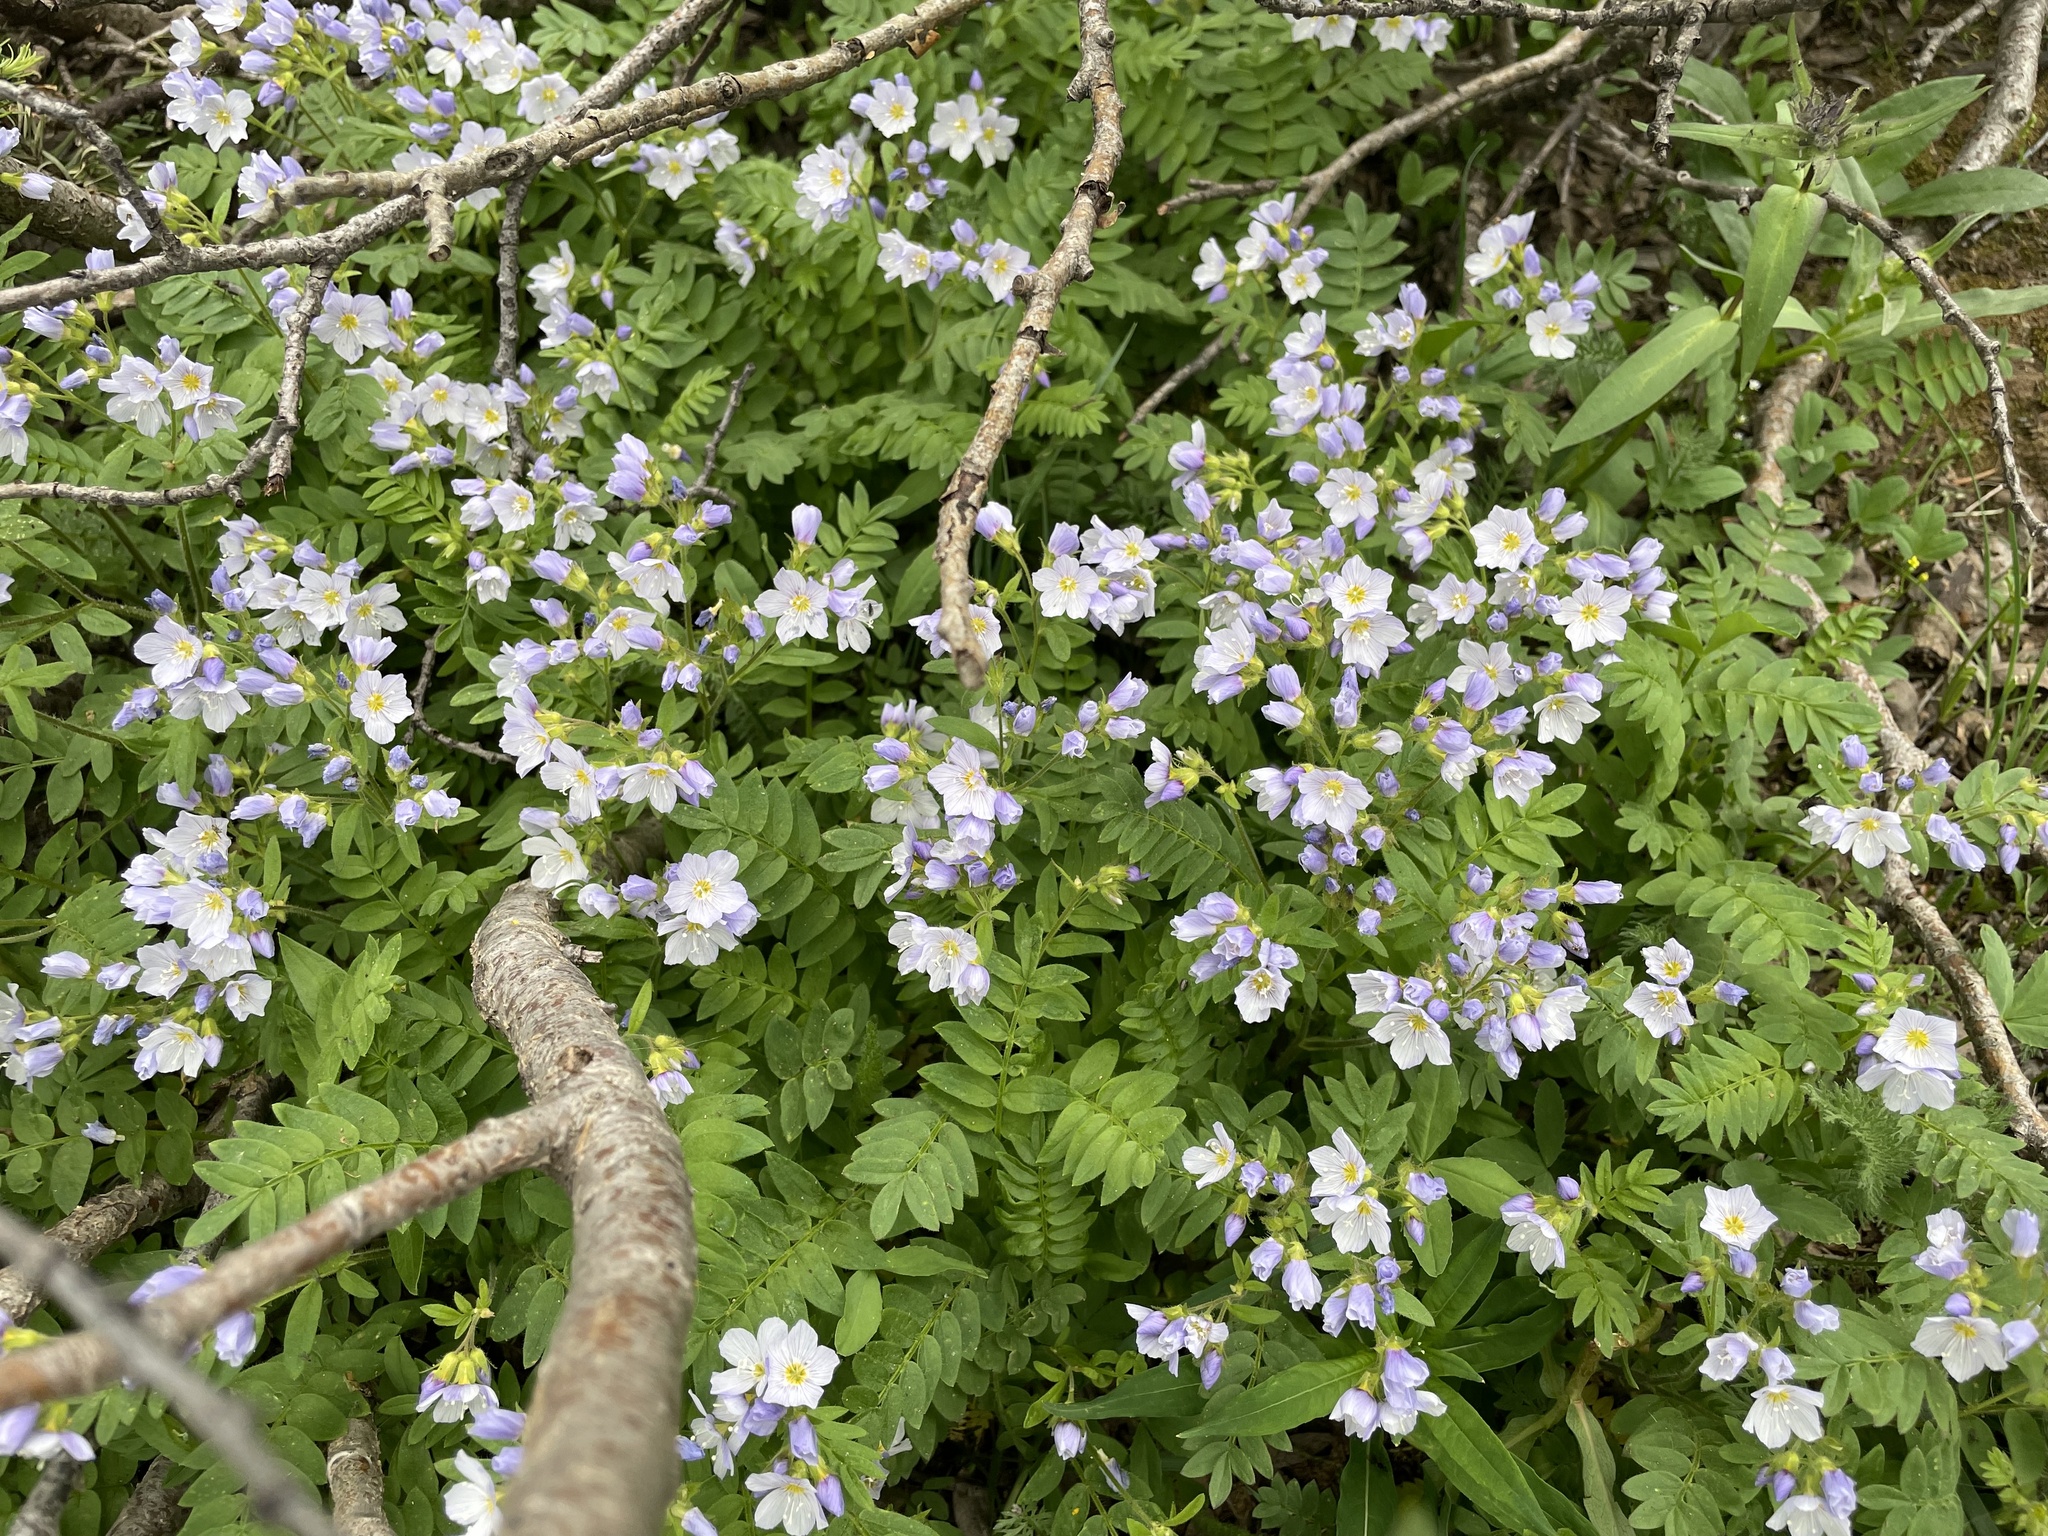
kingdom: Plantae
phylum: Tracheophyta
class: Magnoliopsida
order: Ericales
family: Polemoniaceae
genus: Polemonium
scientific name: Polemonium pulcherrimum
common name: Short jacob's-ladder
